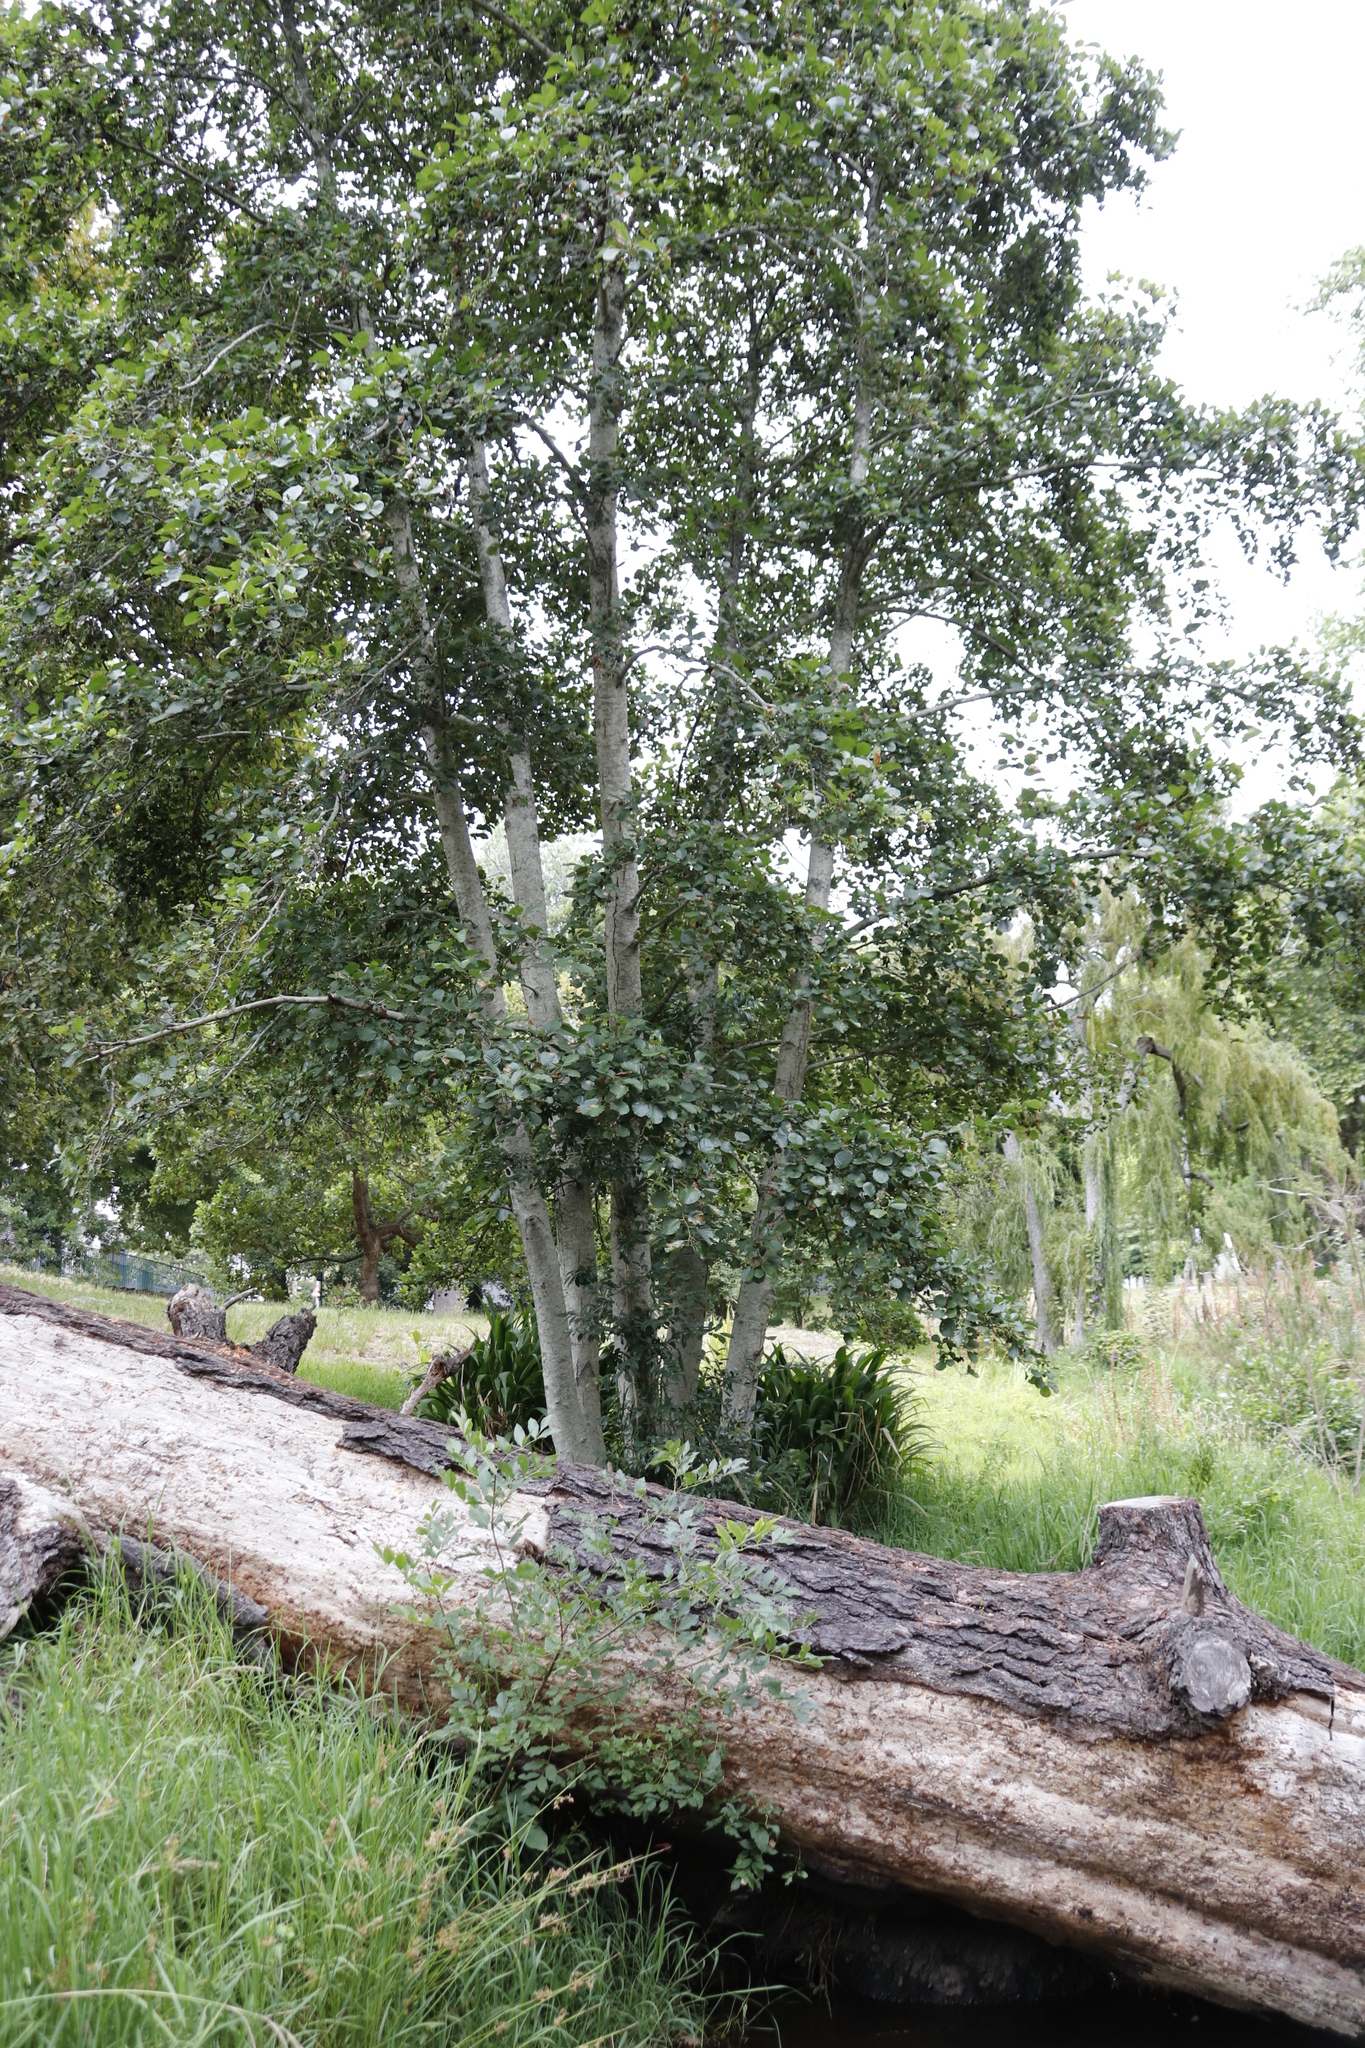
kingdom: Plantae
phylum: Tracheophyta
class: Magnoliopsida
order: Fagales
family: Betulaceae
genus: Alnus
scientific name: Alnus glutinosa
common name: Black alder
